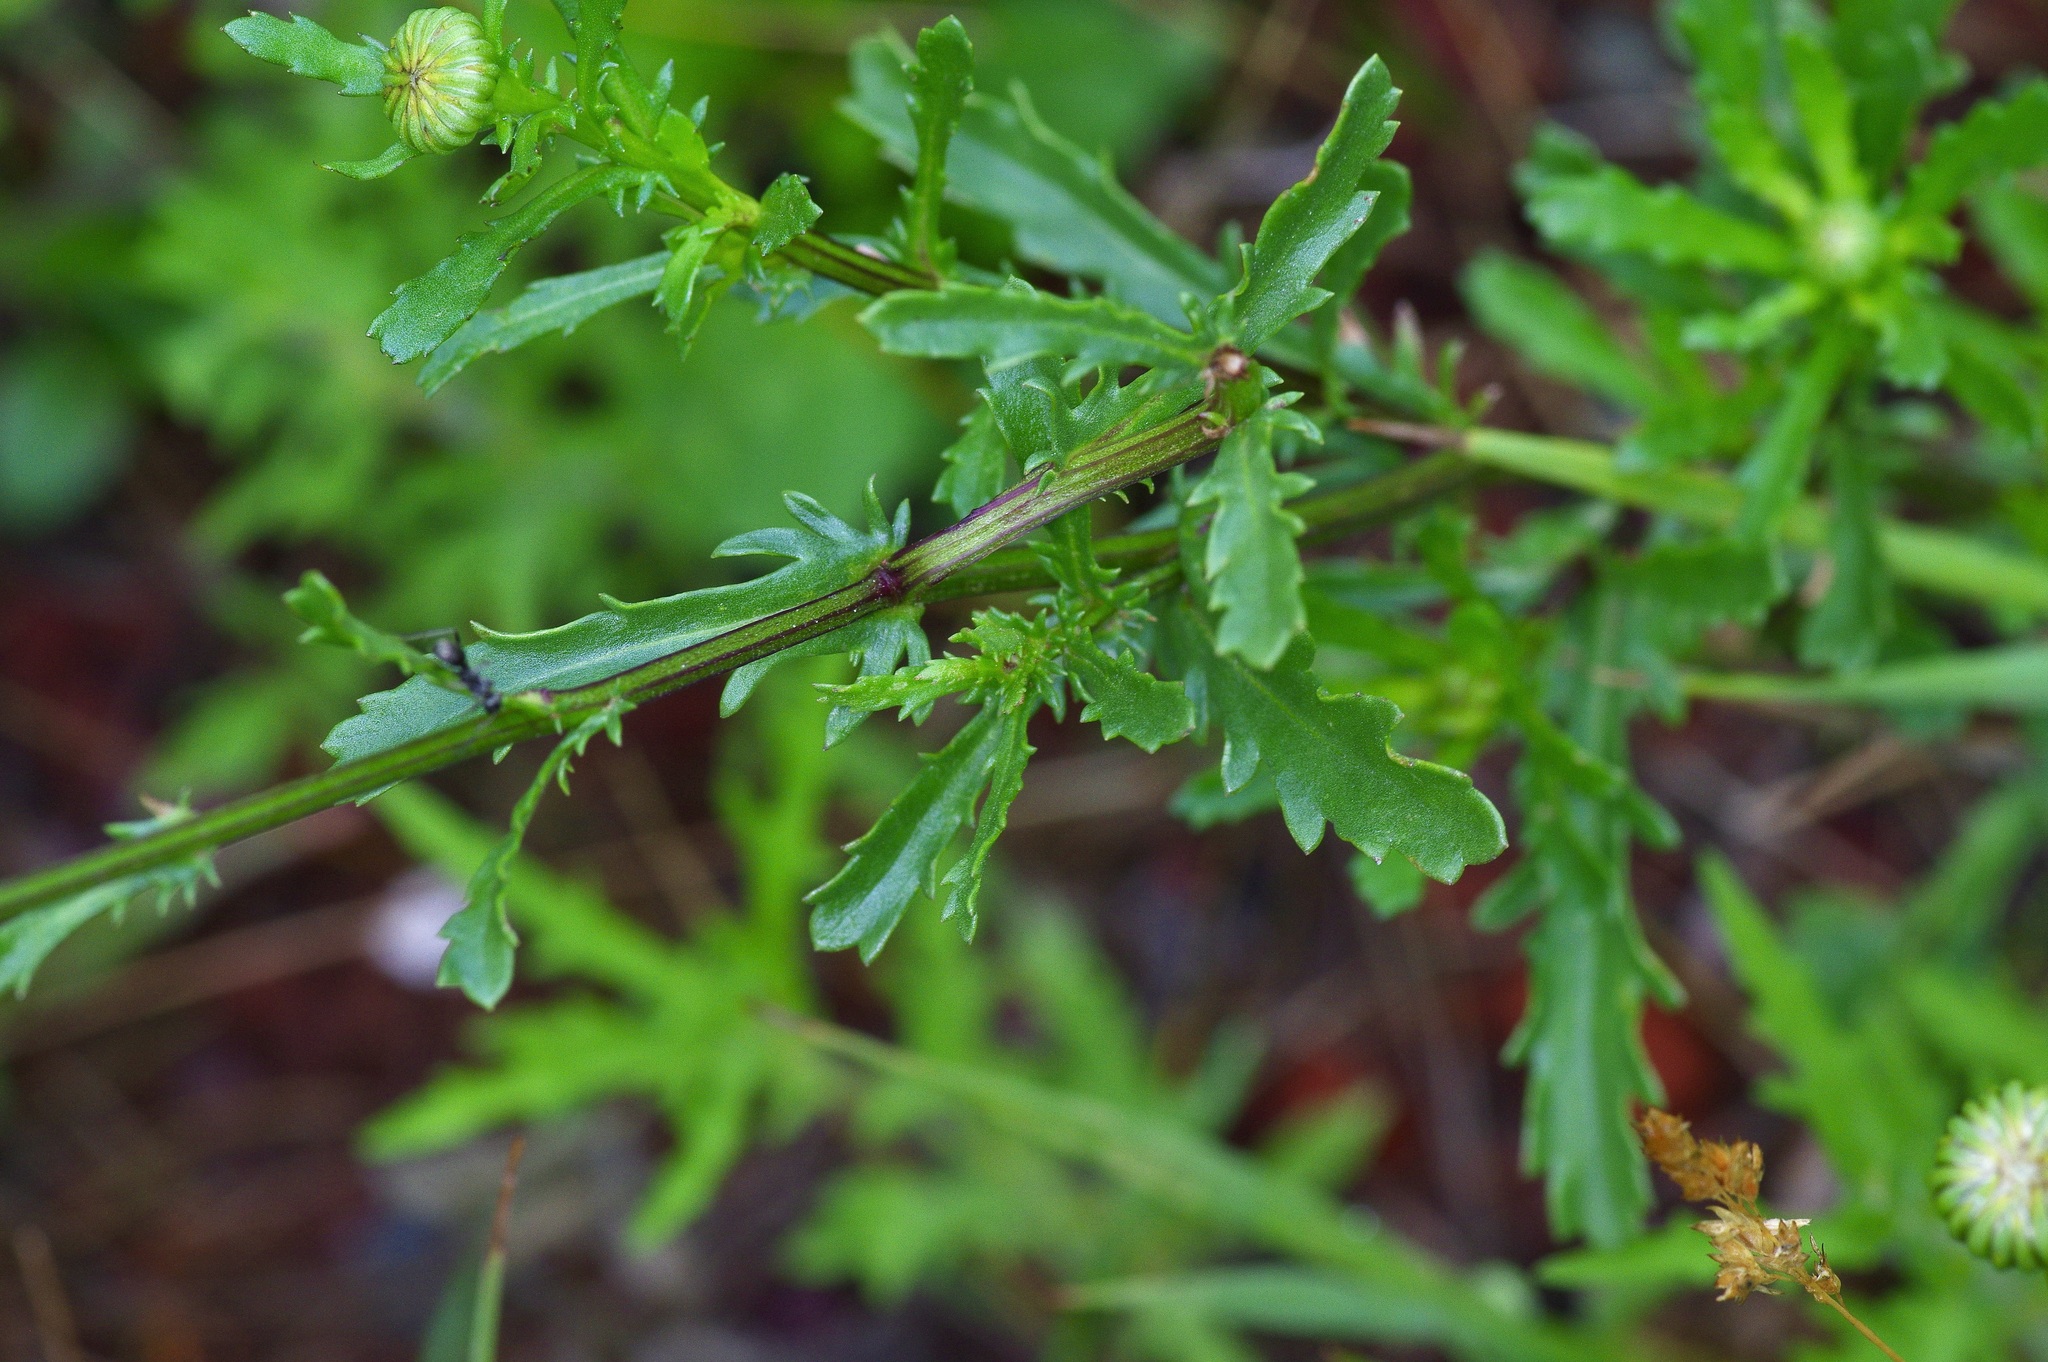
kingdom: Plantae
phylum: Tracheophyta
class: Magnoliopsida
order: Asterales
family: Asteraceae
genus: Leucanthemum
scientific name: Leucanthemum vulgare
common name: Oxeye daisy
